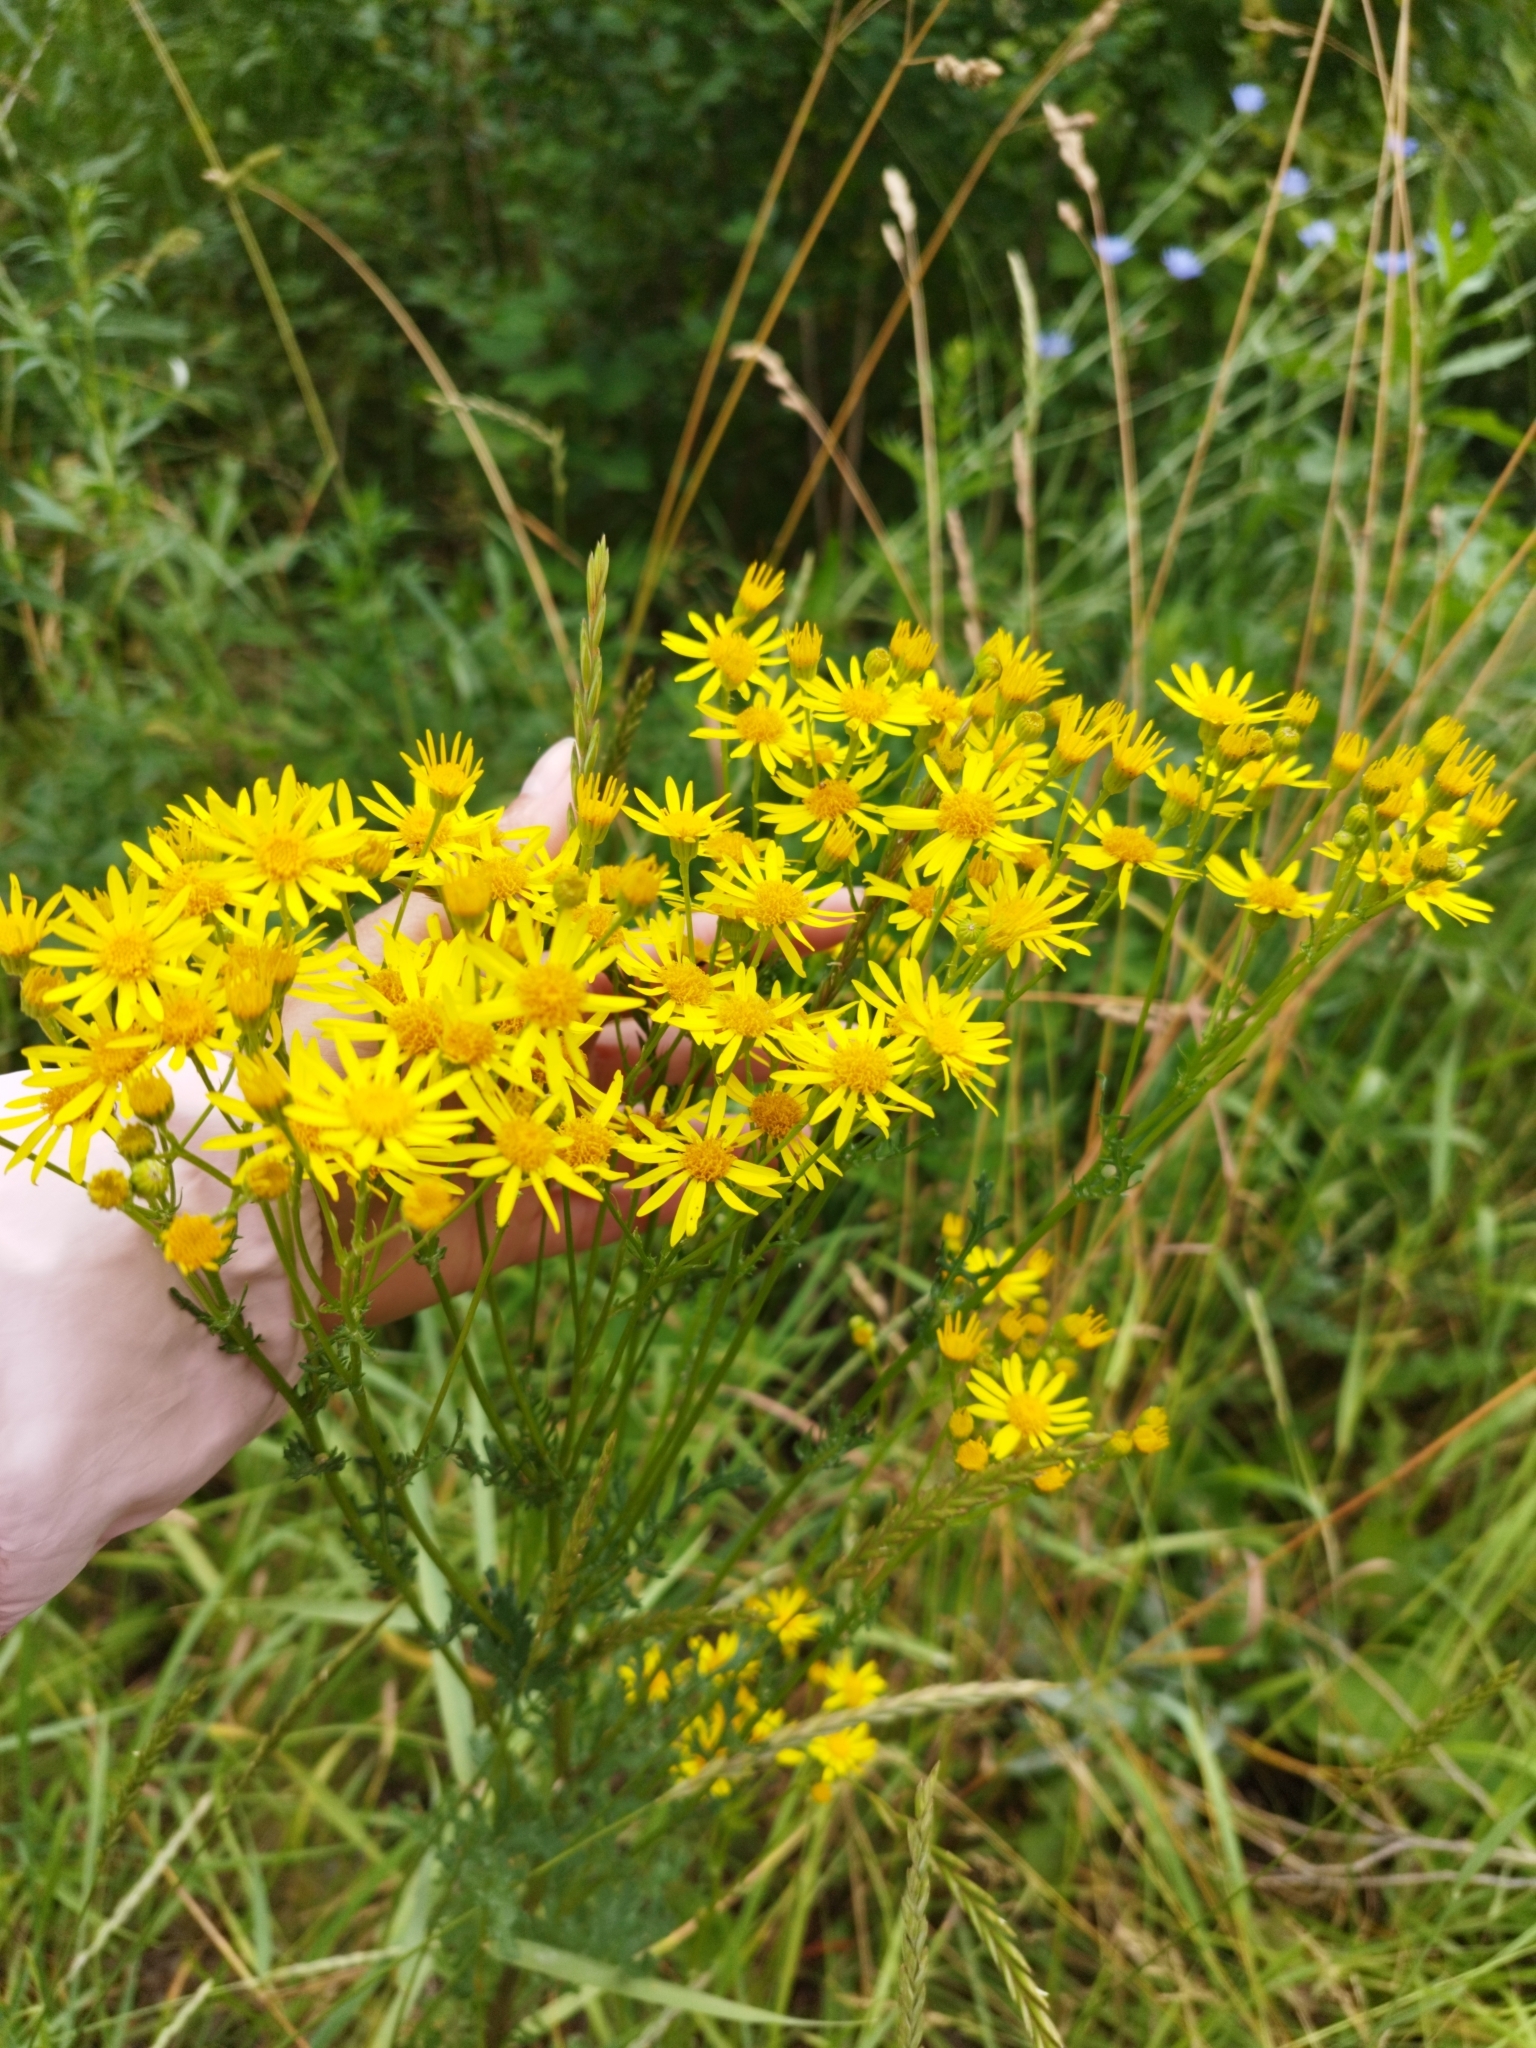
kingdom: Plantae
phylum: Tracheophyta
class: Magnoliopsida
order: Asterales
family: Asteraceae
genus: Jacobaea
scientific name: Jacobaea vulgaris
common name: Stinking willie
